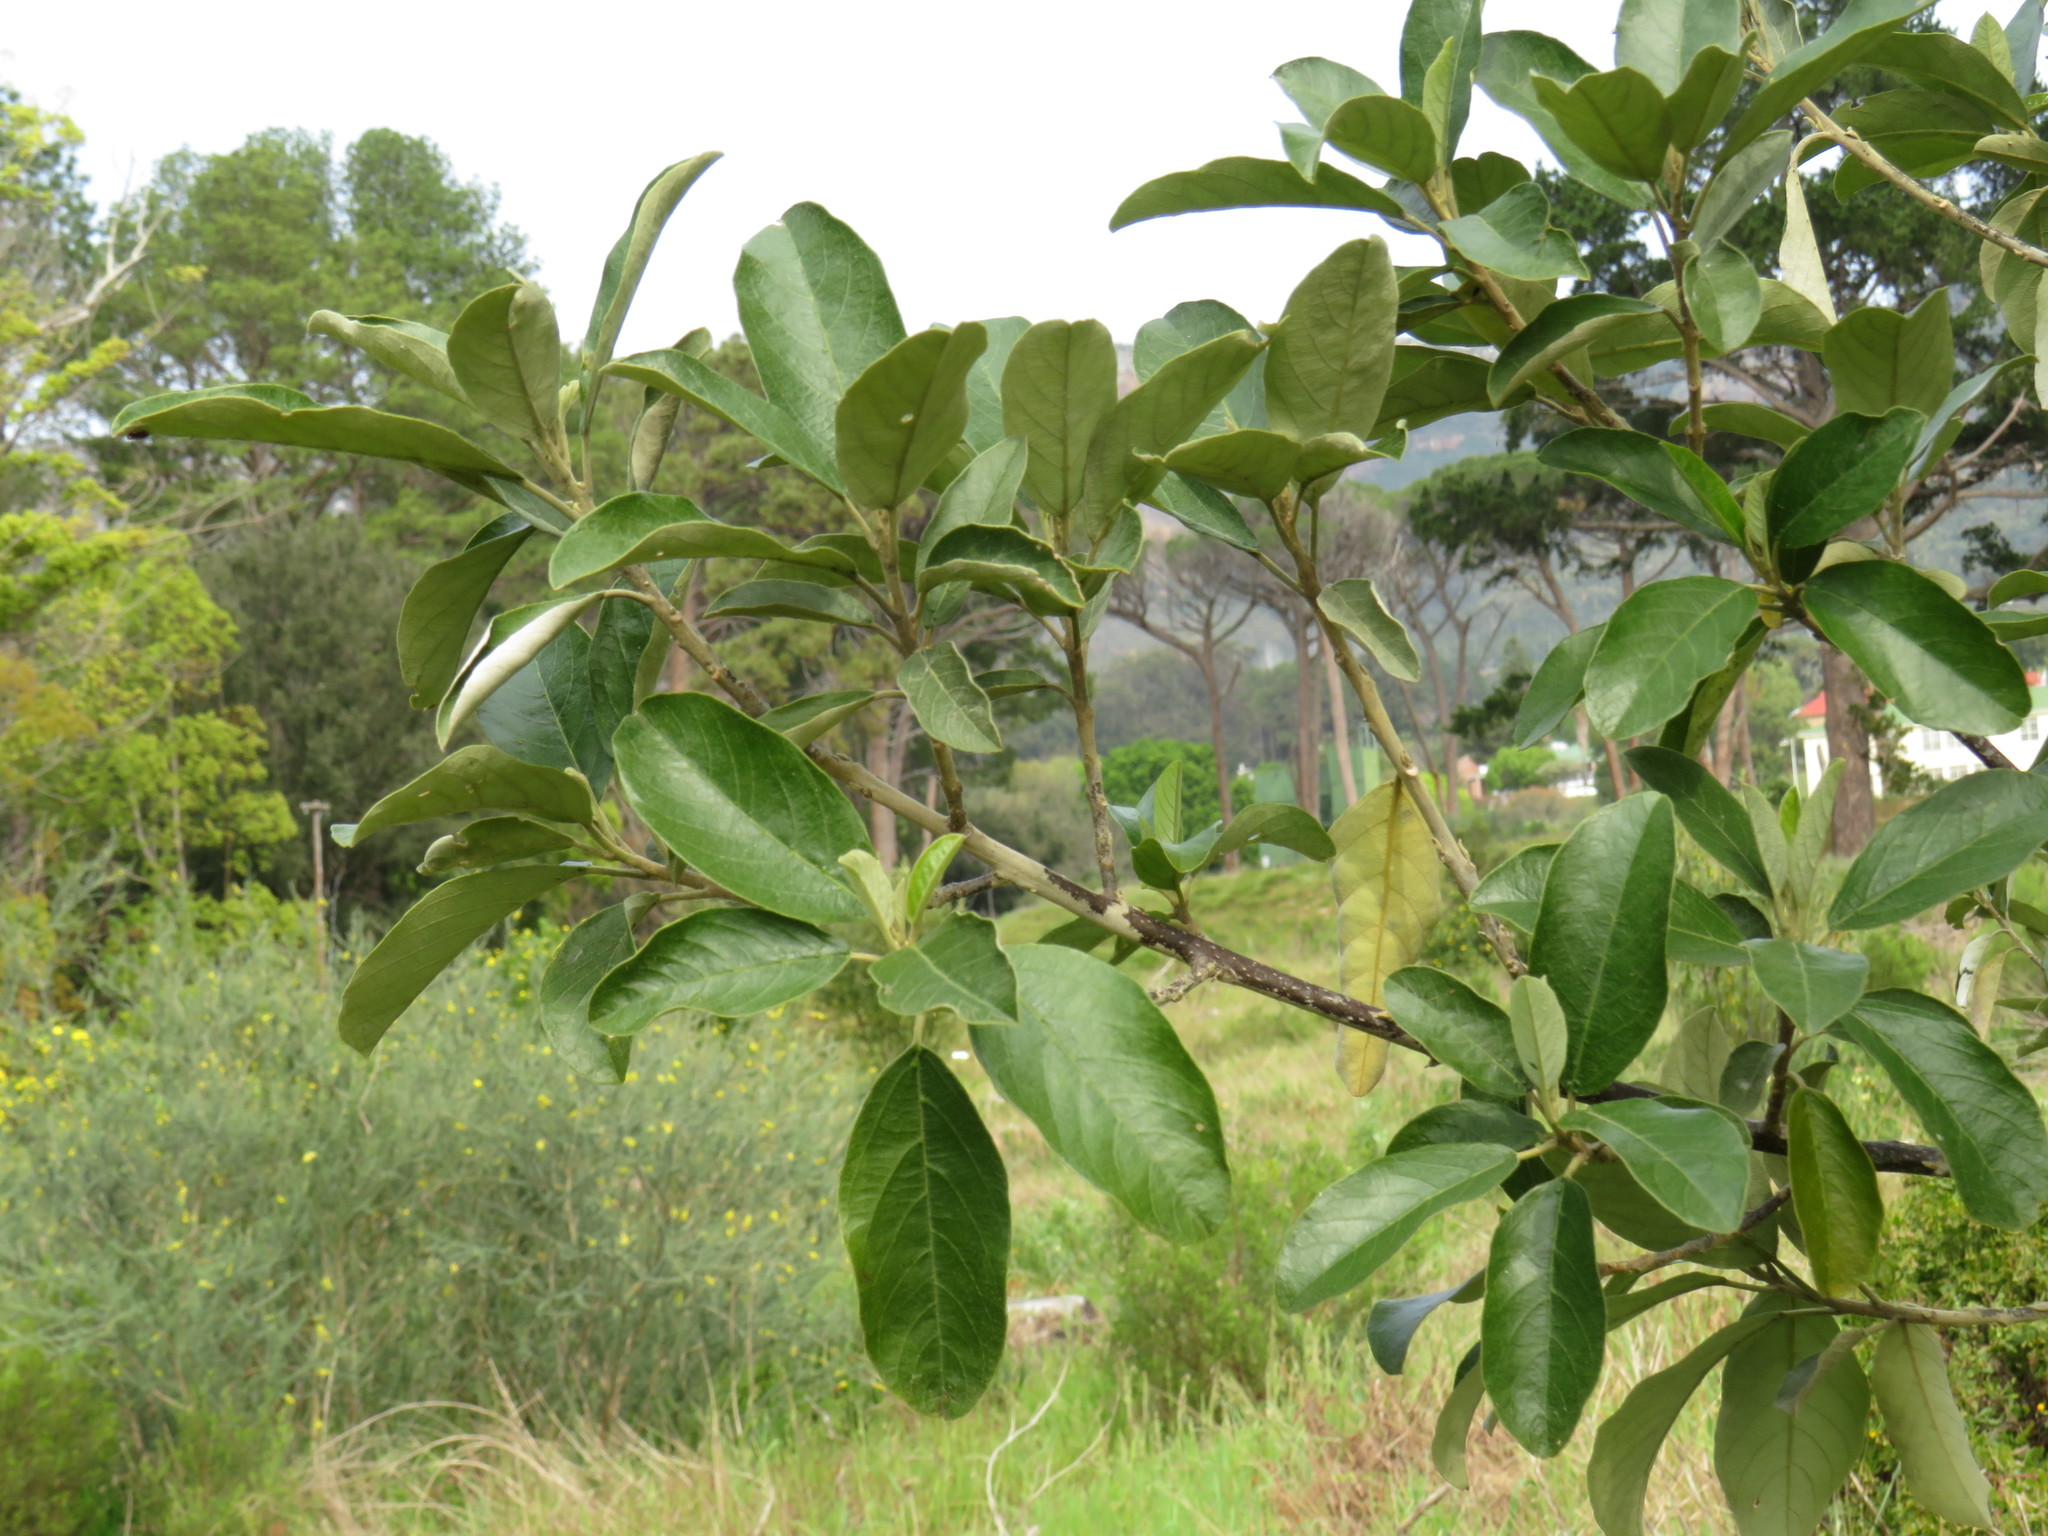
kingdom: Plantae
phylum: Tracheophyta
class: Magnoliopsida
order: Malpighiales
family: Achariaceae
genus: Kiggelaria
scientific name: Kiggelaria africana
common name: Wild peach
